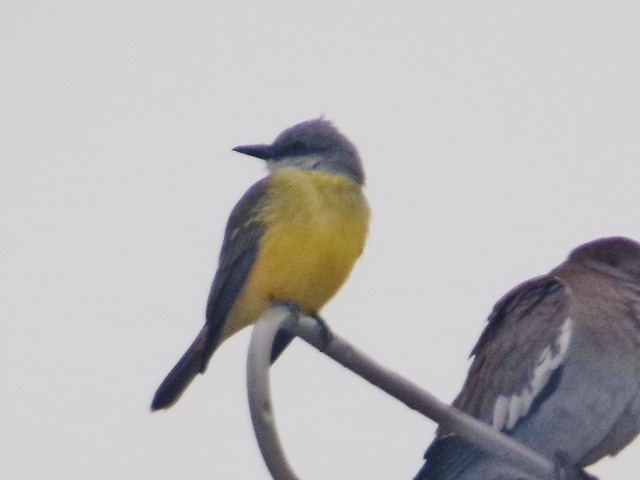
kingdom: Animalia
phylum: Chordata
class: Aves
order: Passeriformes
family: Tyrannidae
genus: Tyrannus
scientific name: Tyrannus melancholicus
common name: Tropical kingbird
